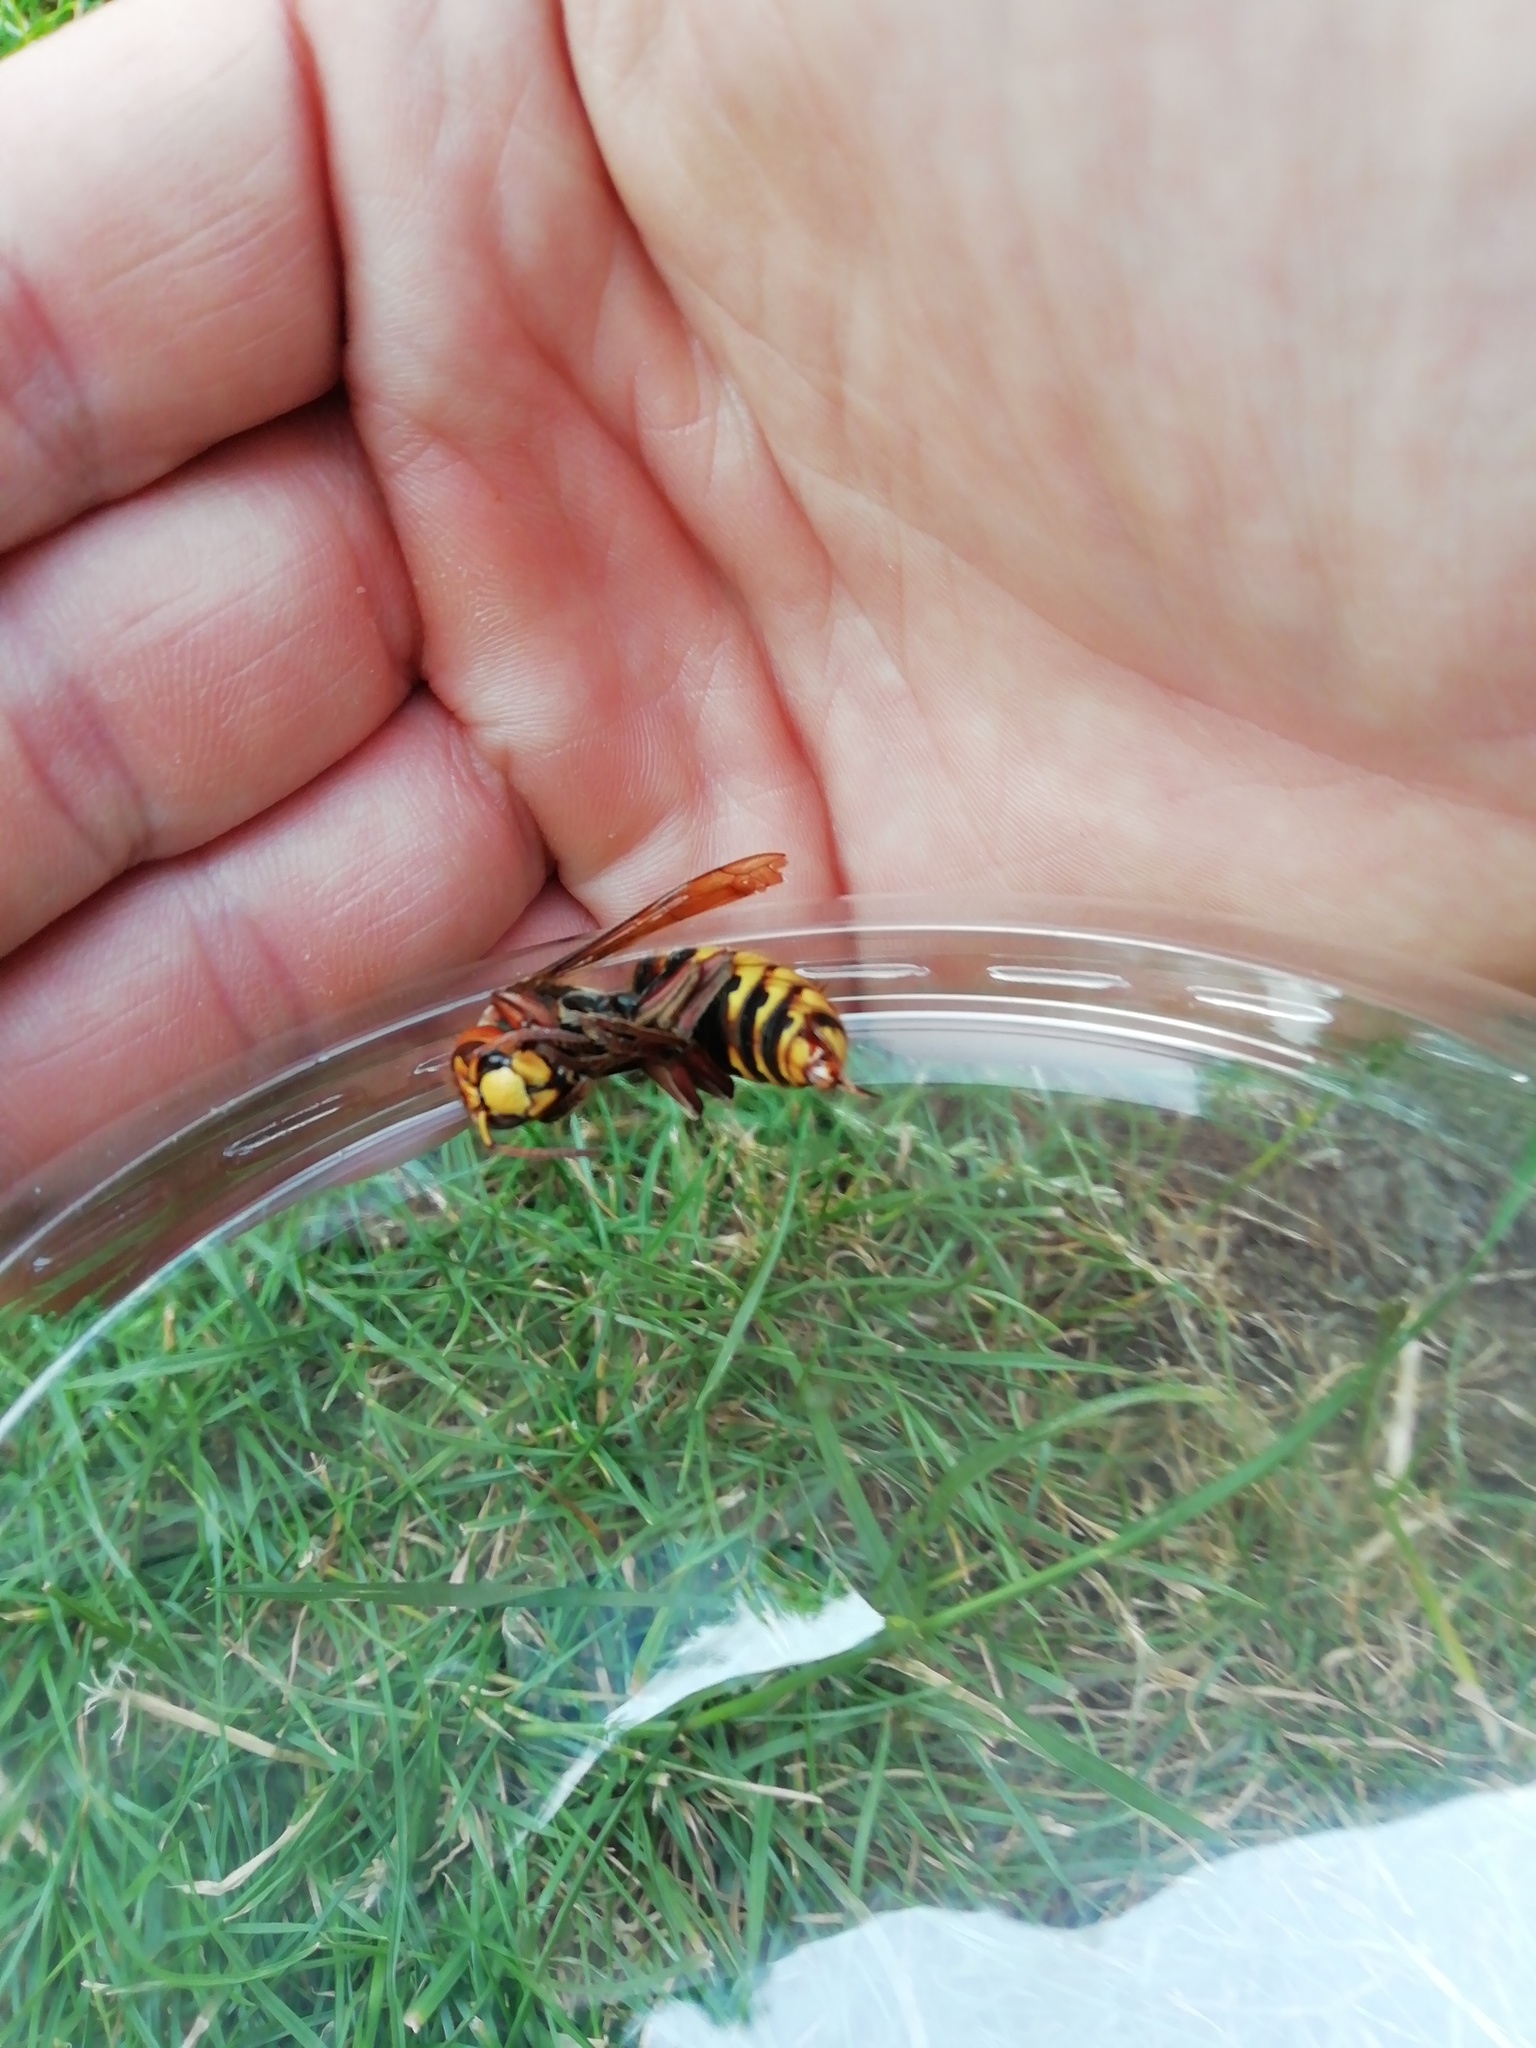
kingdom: Animalia
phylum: Arthropoda
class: Insecta
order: Hymenoptera
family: Vespidae
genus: Vespa
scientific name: Vespa crabro
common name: Hornet
